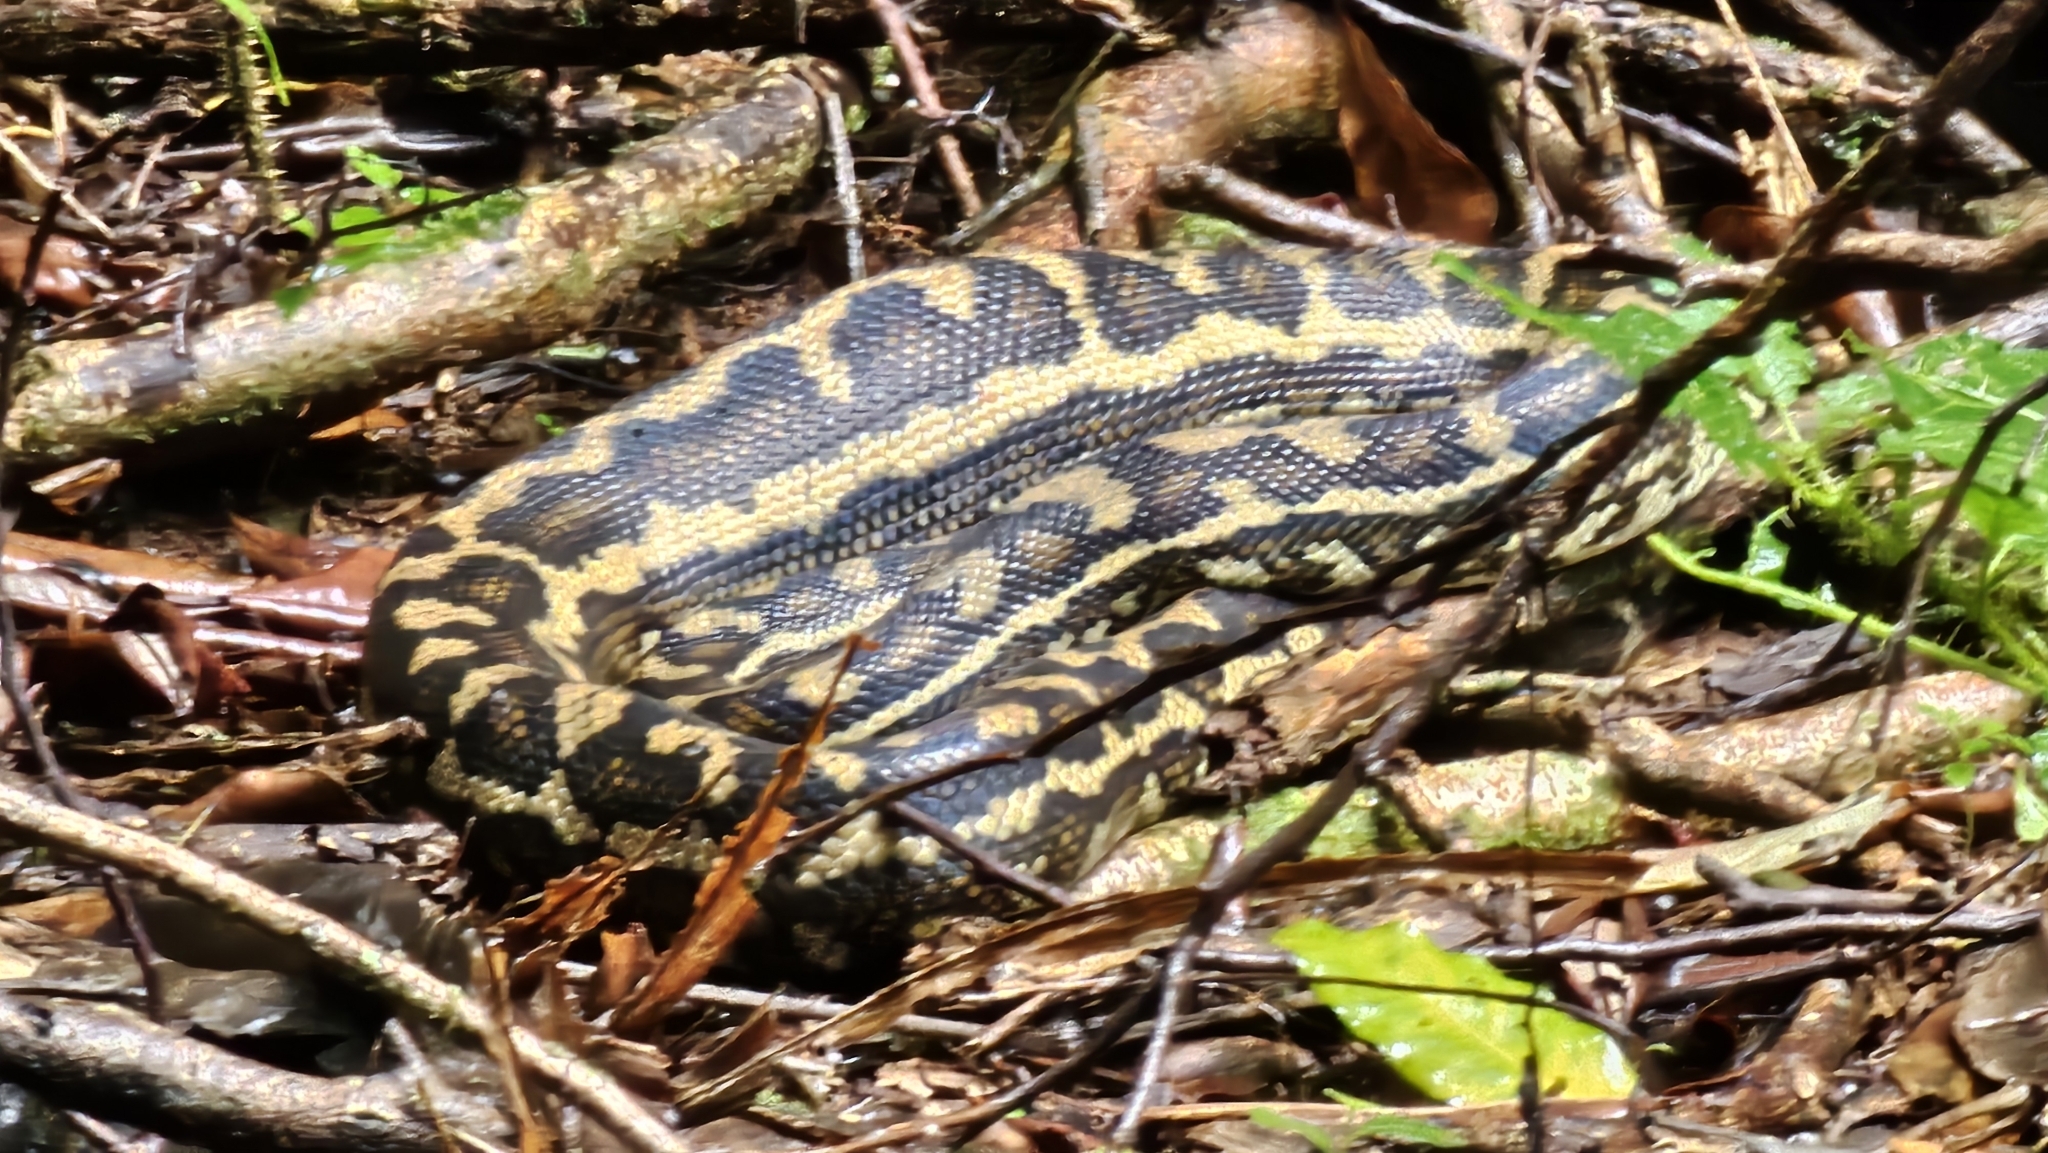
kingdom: Animalia
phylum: Chordata
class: Squamata
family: Pythonidae
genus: Morelia
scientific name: Morelia spilota
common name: Carpet python
